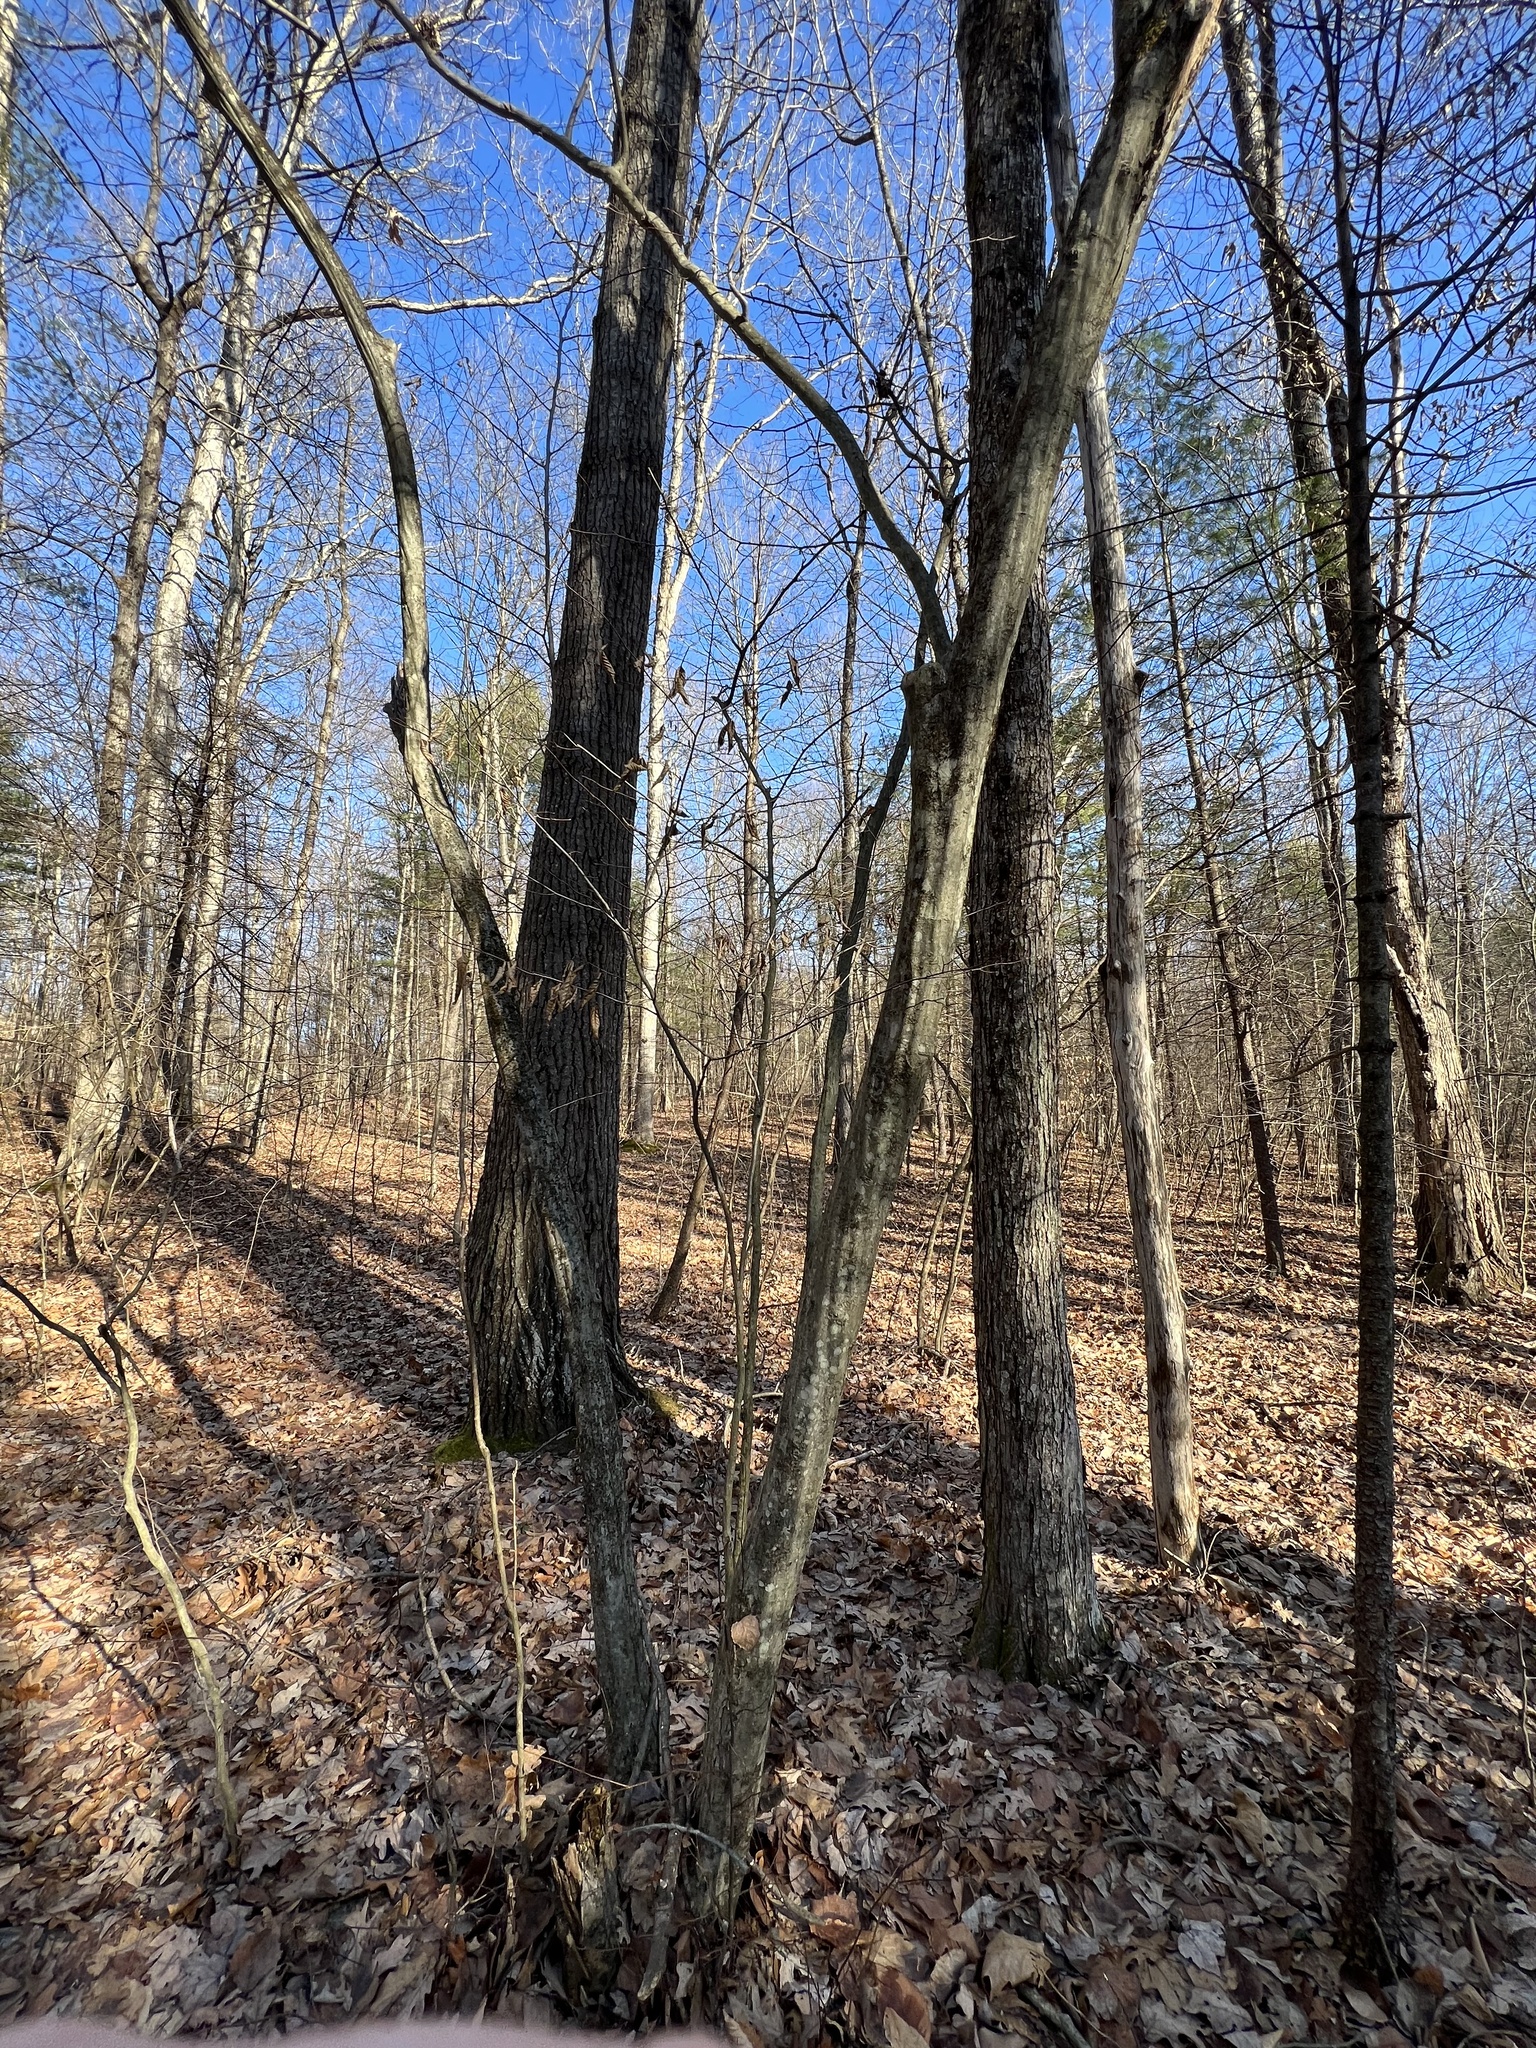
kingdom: Plantae
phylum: Tracheophyta
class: Magnoliopsida
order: Fagales
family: Betulaceae
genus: Carpinus
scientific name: Carpinus caroliniana
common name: American hornbeam
